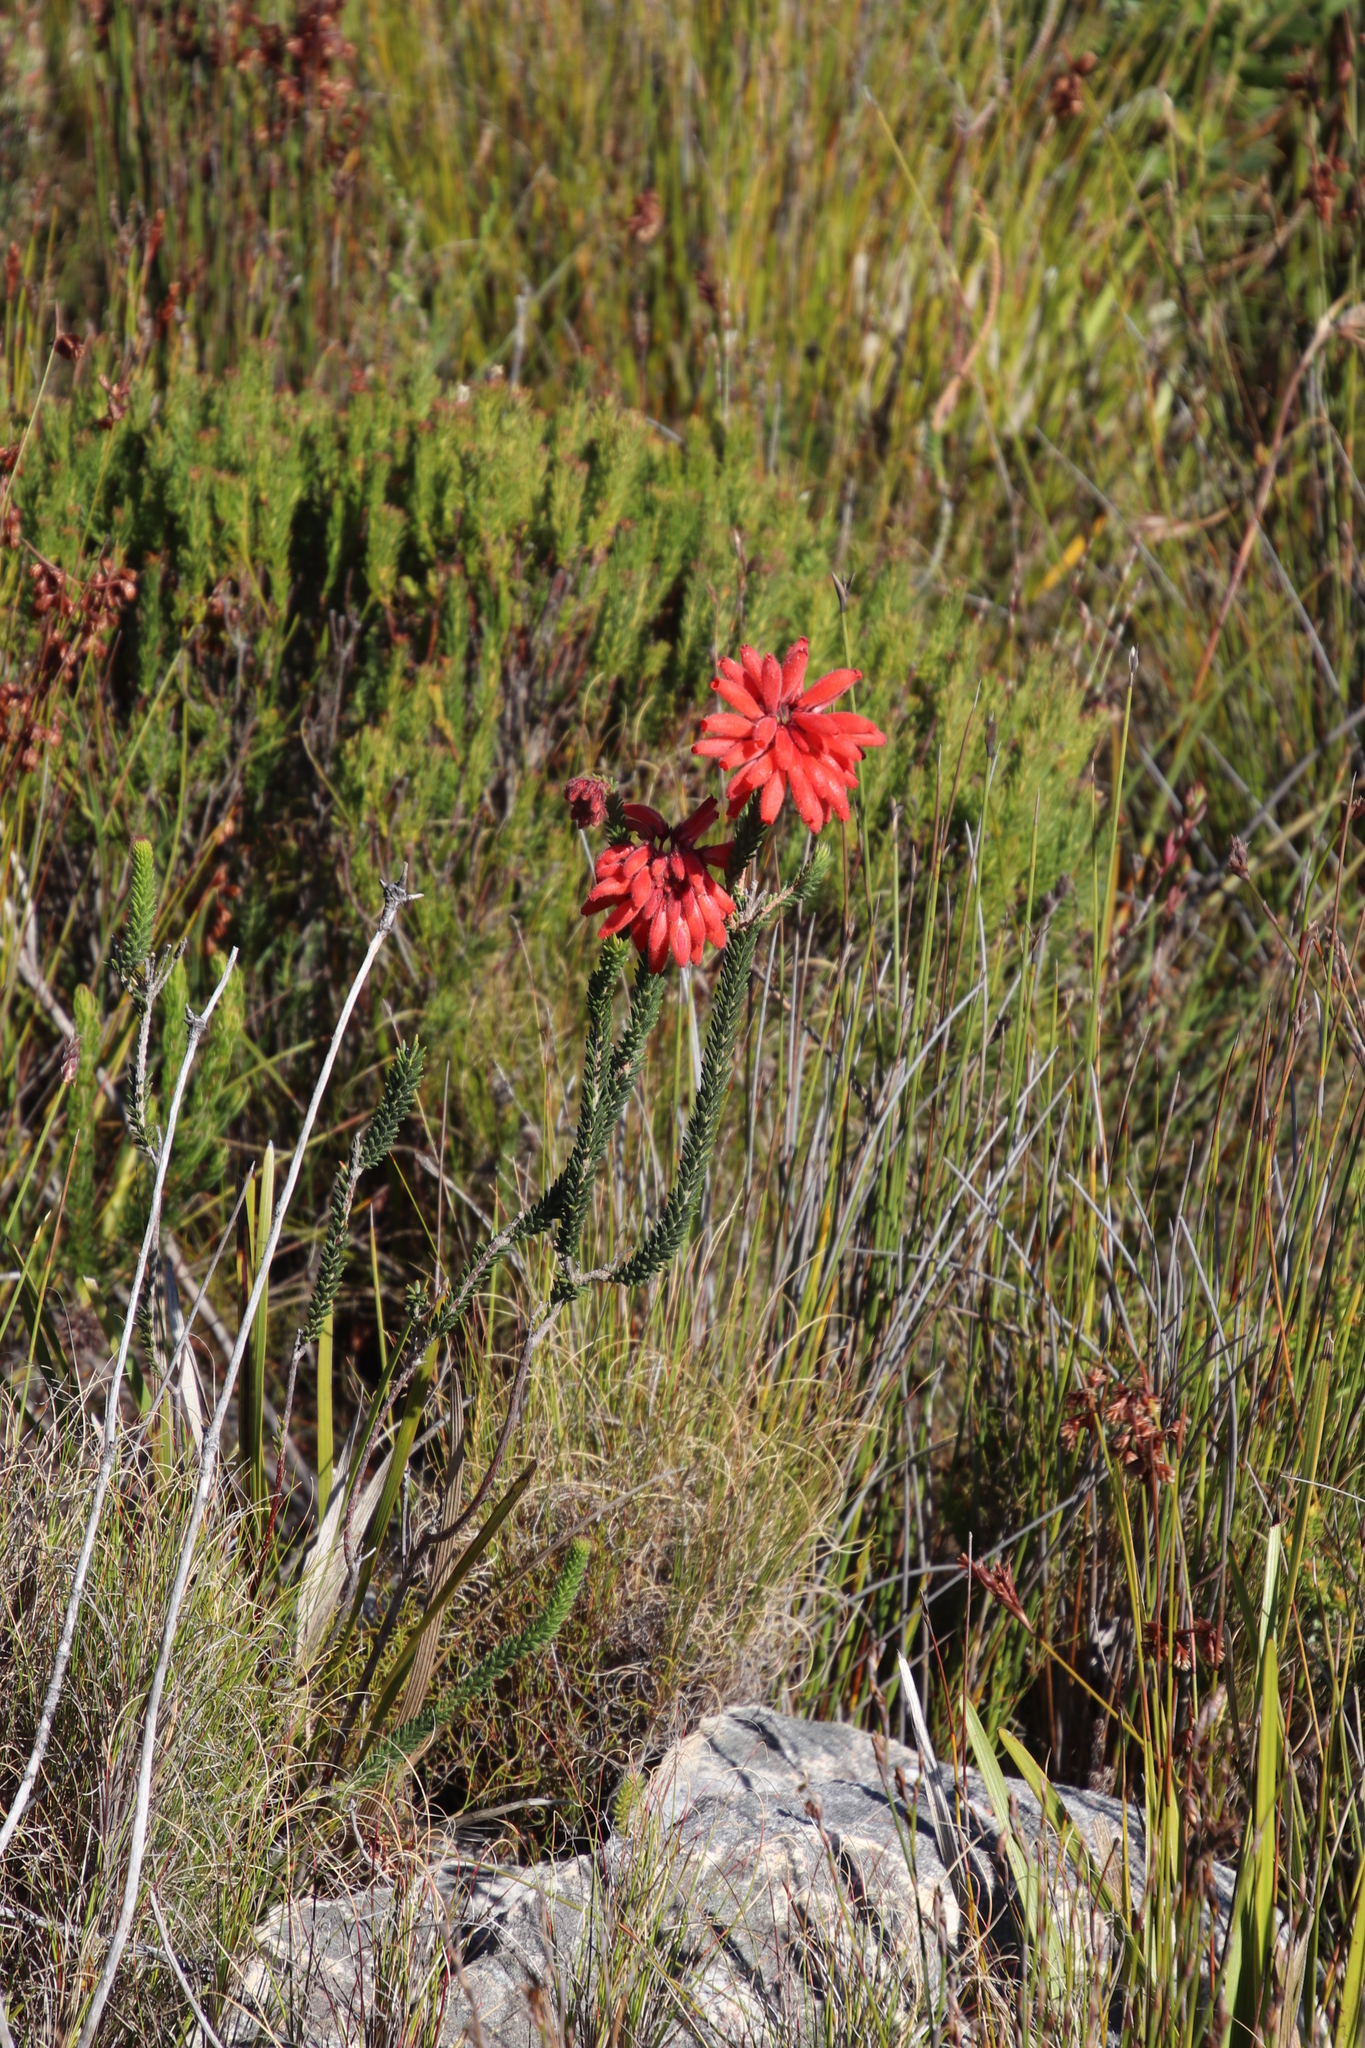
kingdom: Plantae
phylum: Tracheophyta
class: Magnoliopsida
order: Ericales
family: Ericaceae
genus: Erica
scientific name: Erica cerinthoides
